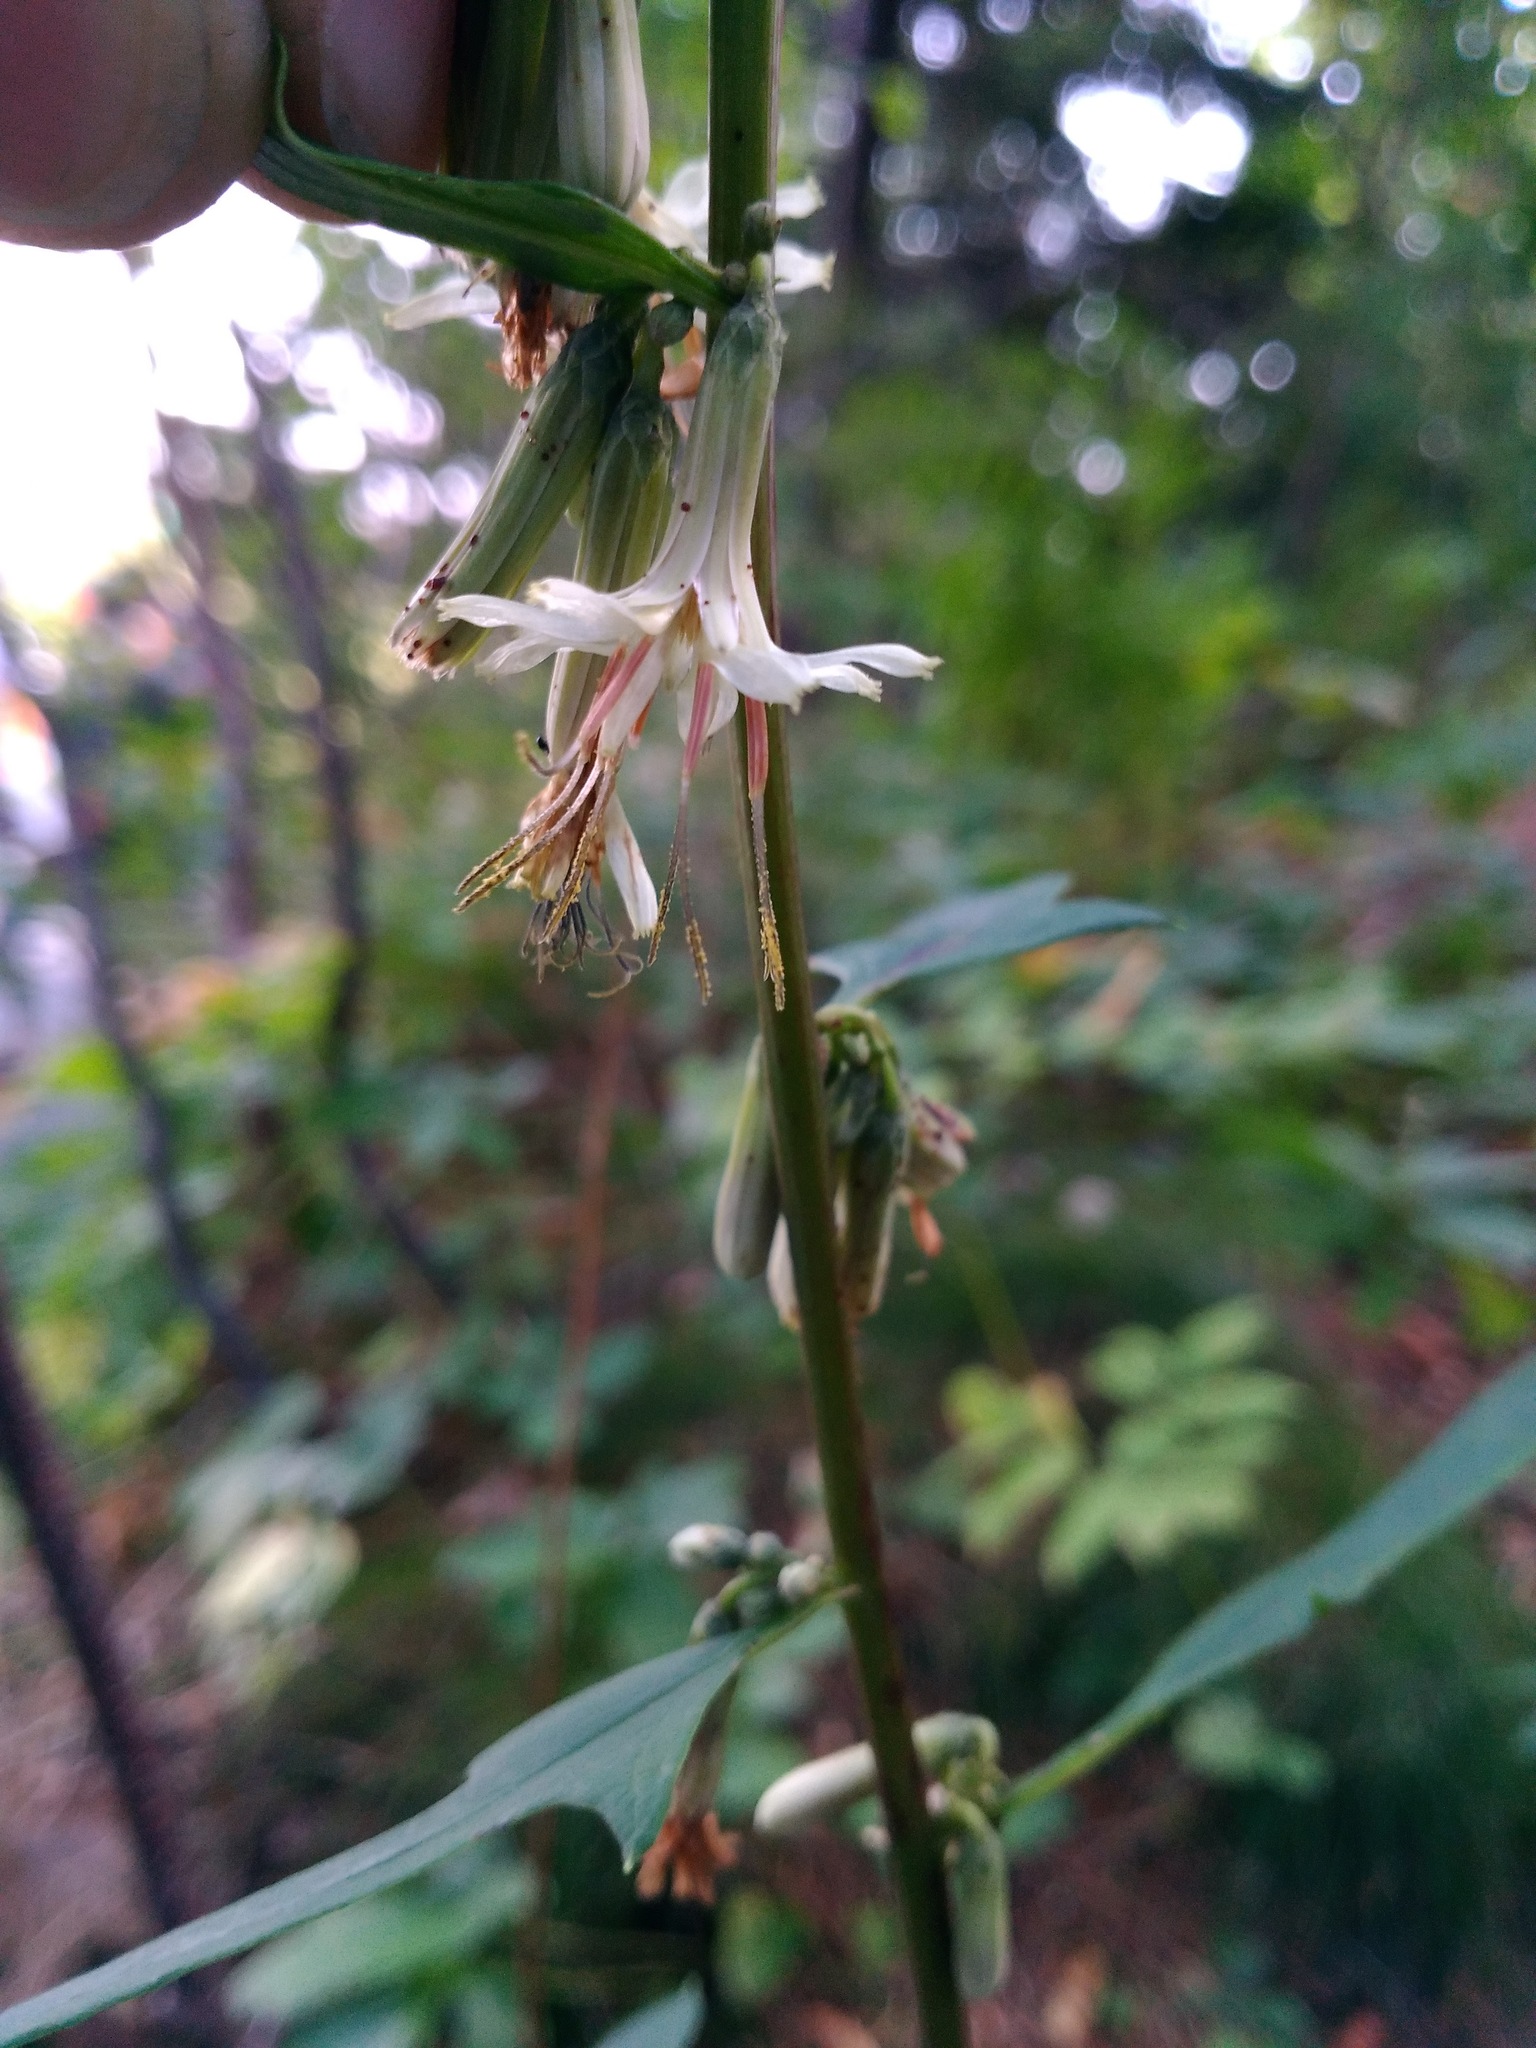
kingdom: Plantae
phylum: Tracheophyta
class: Magnoliopsida
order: Asterales
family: Asteraceae
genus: Nabalus
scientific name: Nabalus trifoliolatus
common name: Gall-of-the-earth
